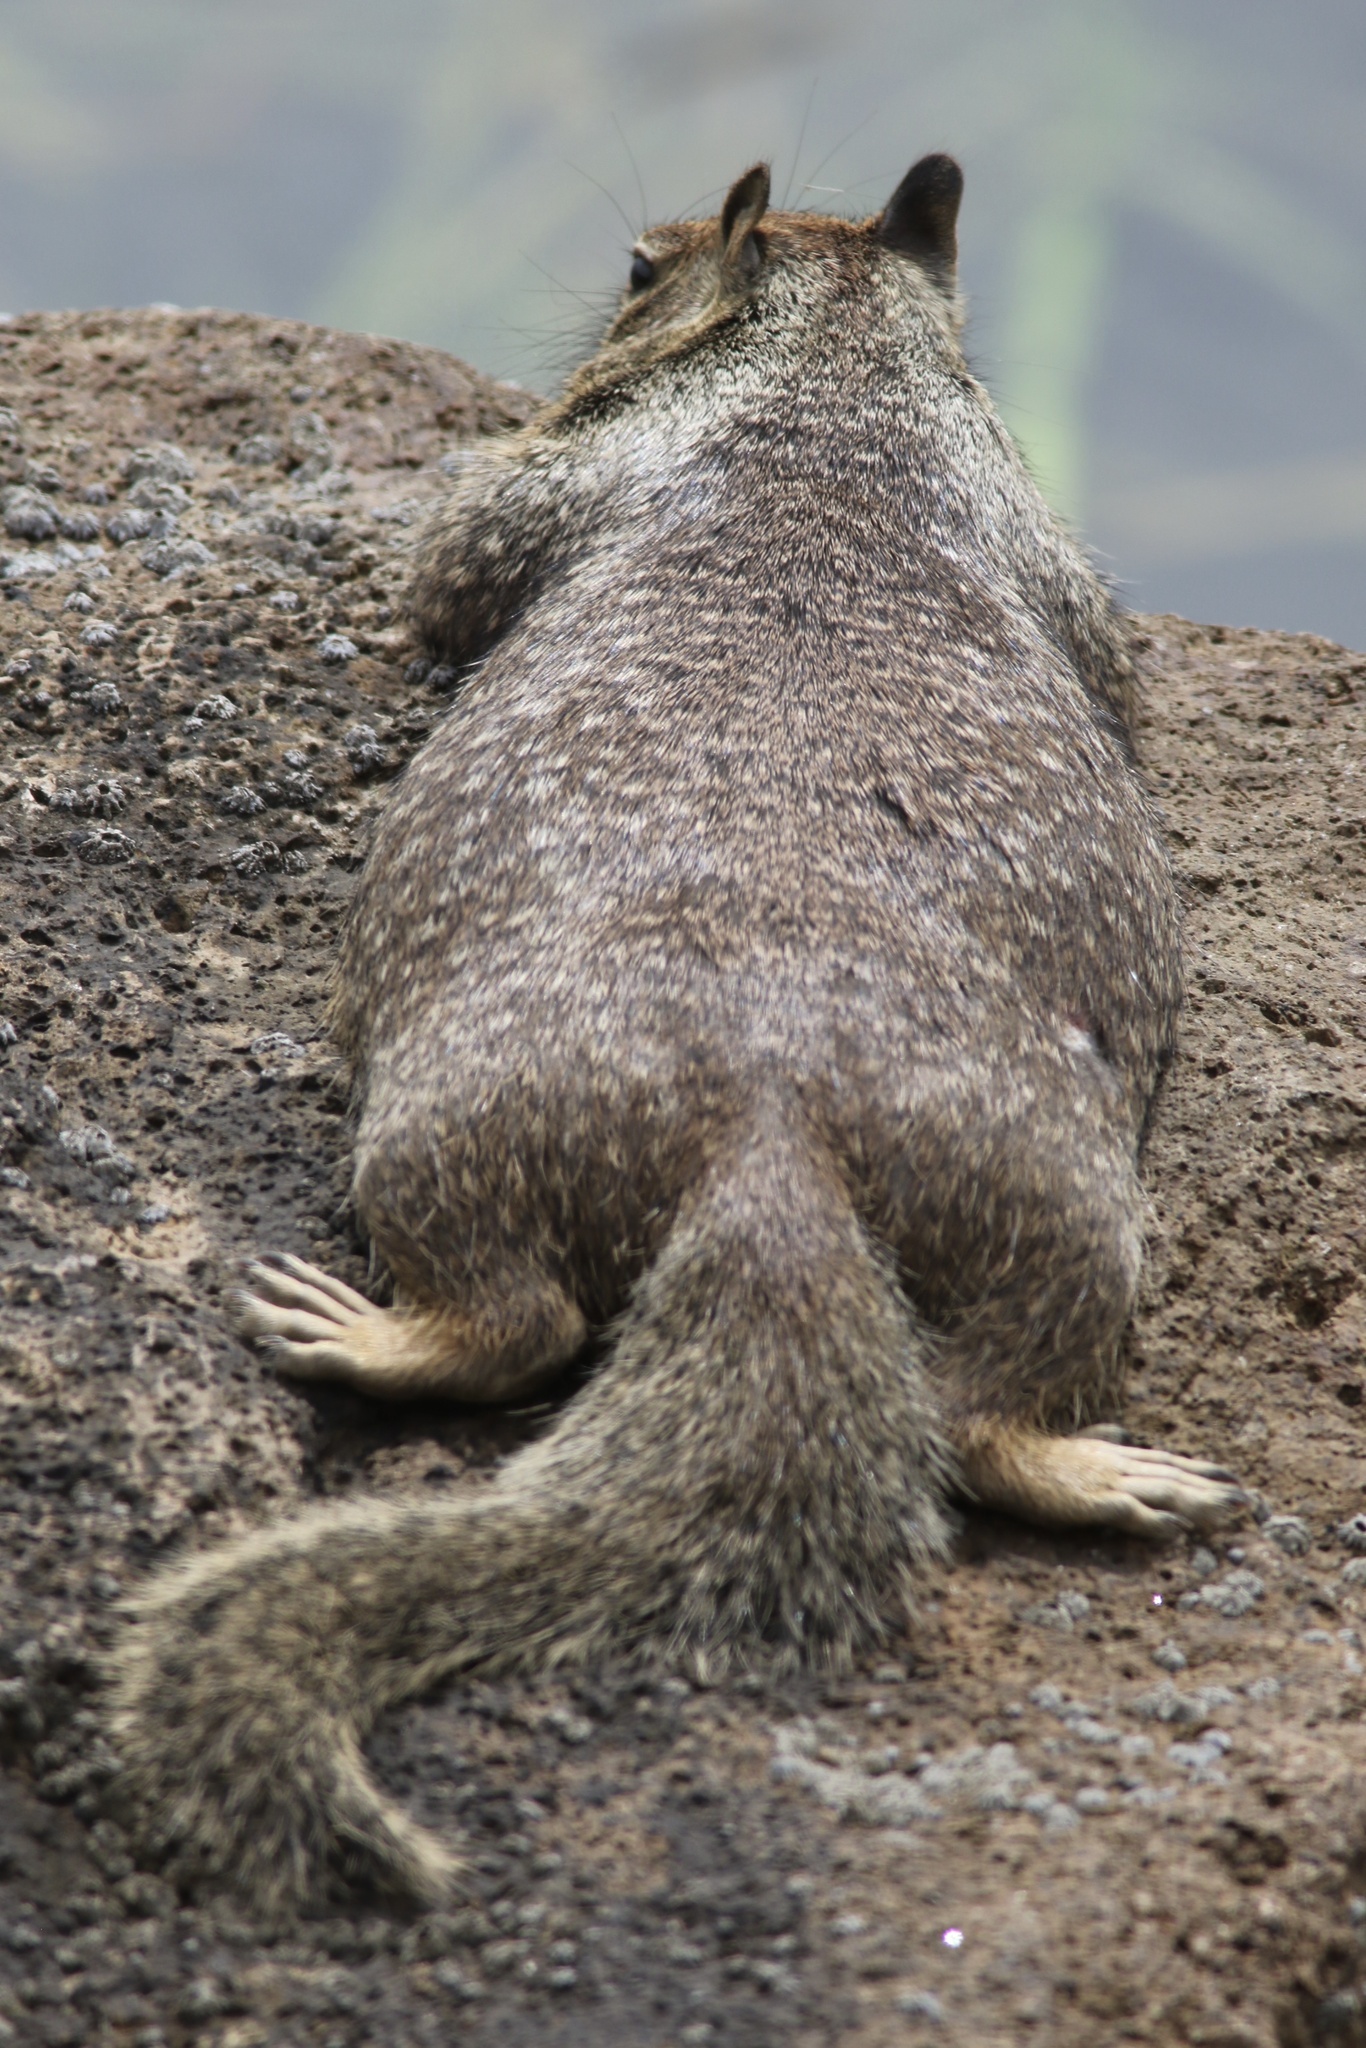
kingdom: Animalia
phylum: Chordata
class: Mammalia
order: Rodentia
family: Sciuridae
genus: Otospermophilus
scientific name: Otospermophilus beecheyi
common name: California ground squirrel
